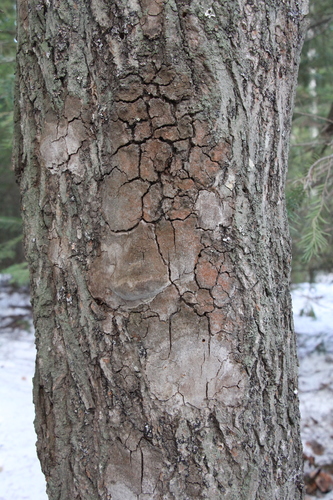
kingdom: Fungi
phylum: Basidiomycota
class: Agaricomycetes
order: Hymenochaetales
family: Hymenochaetaceae
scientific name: Hymenochaetaceae
